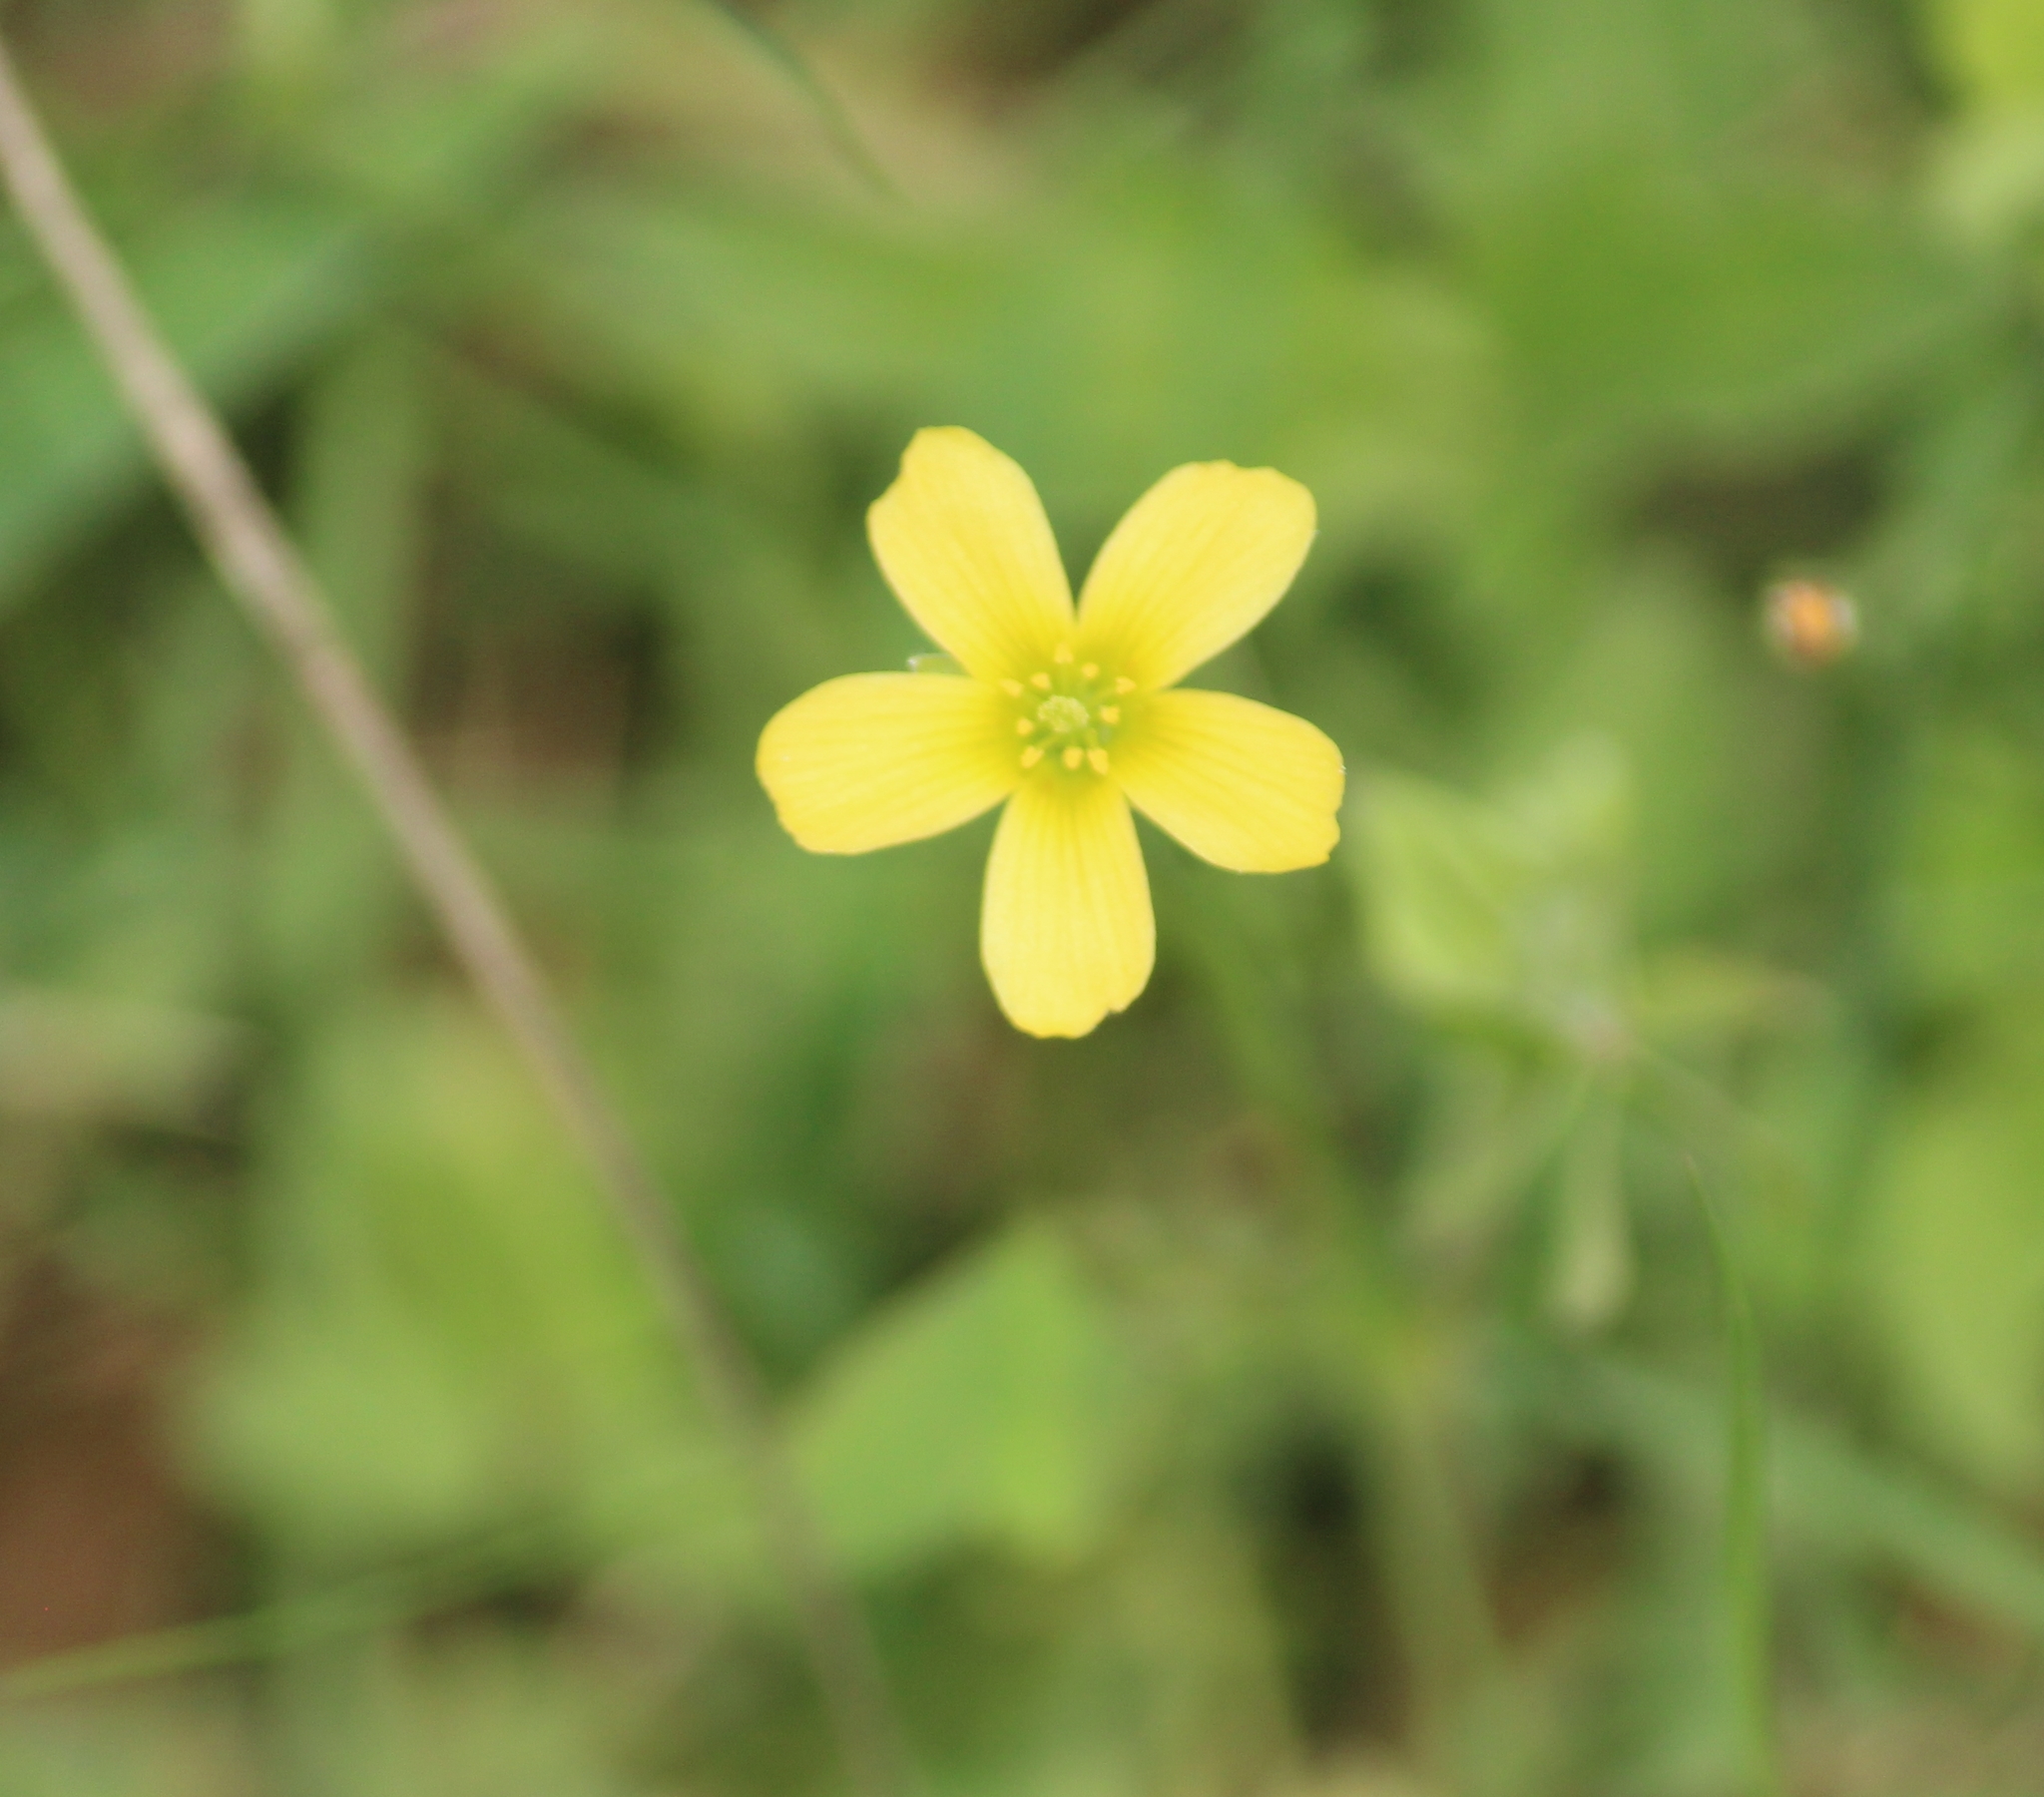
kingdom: Plantae
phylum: Tracheophyta
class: Magnoliopsida
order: Oxalidales
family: Oxalidaceae
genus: Oxalis
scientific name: Oxalis corniculata
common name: Procumbent yellow-sorrel
